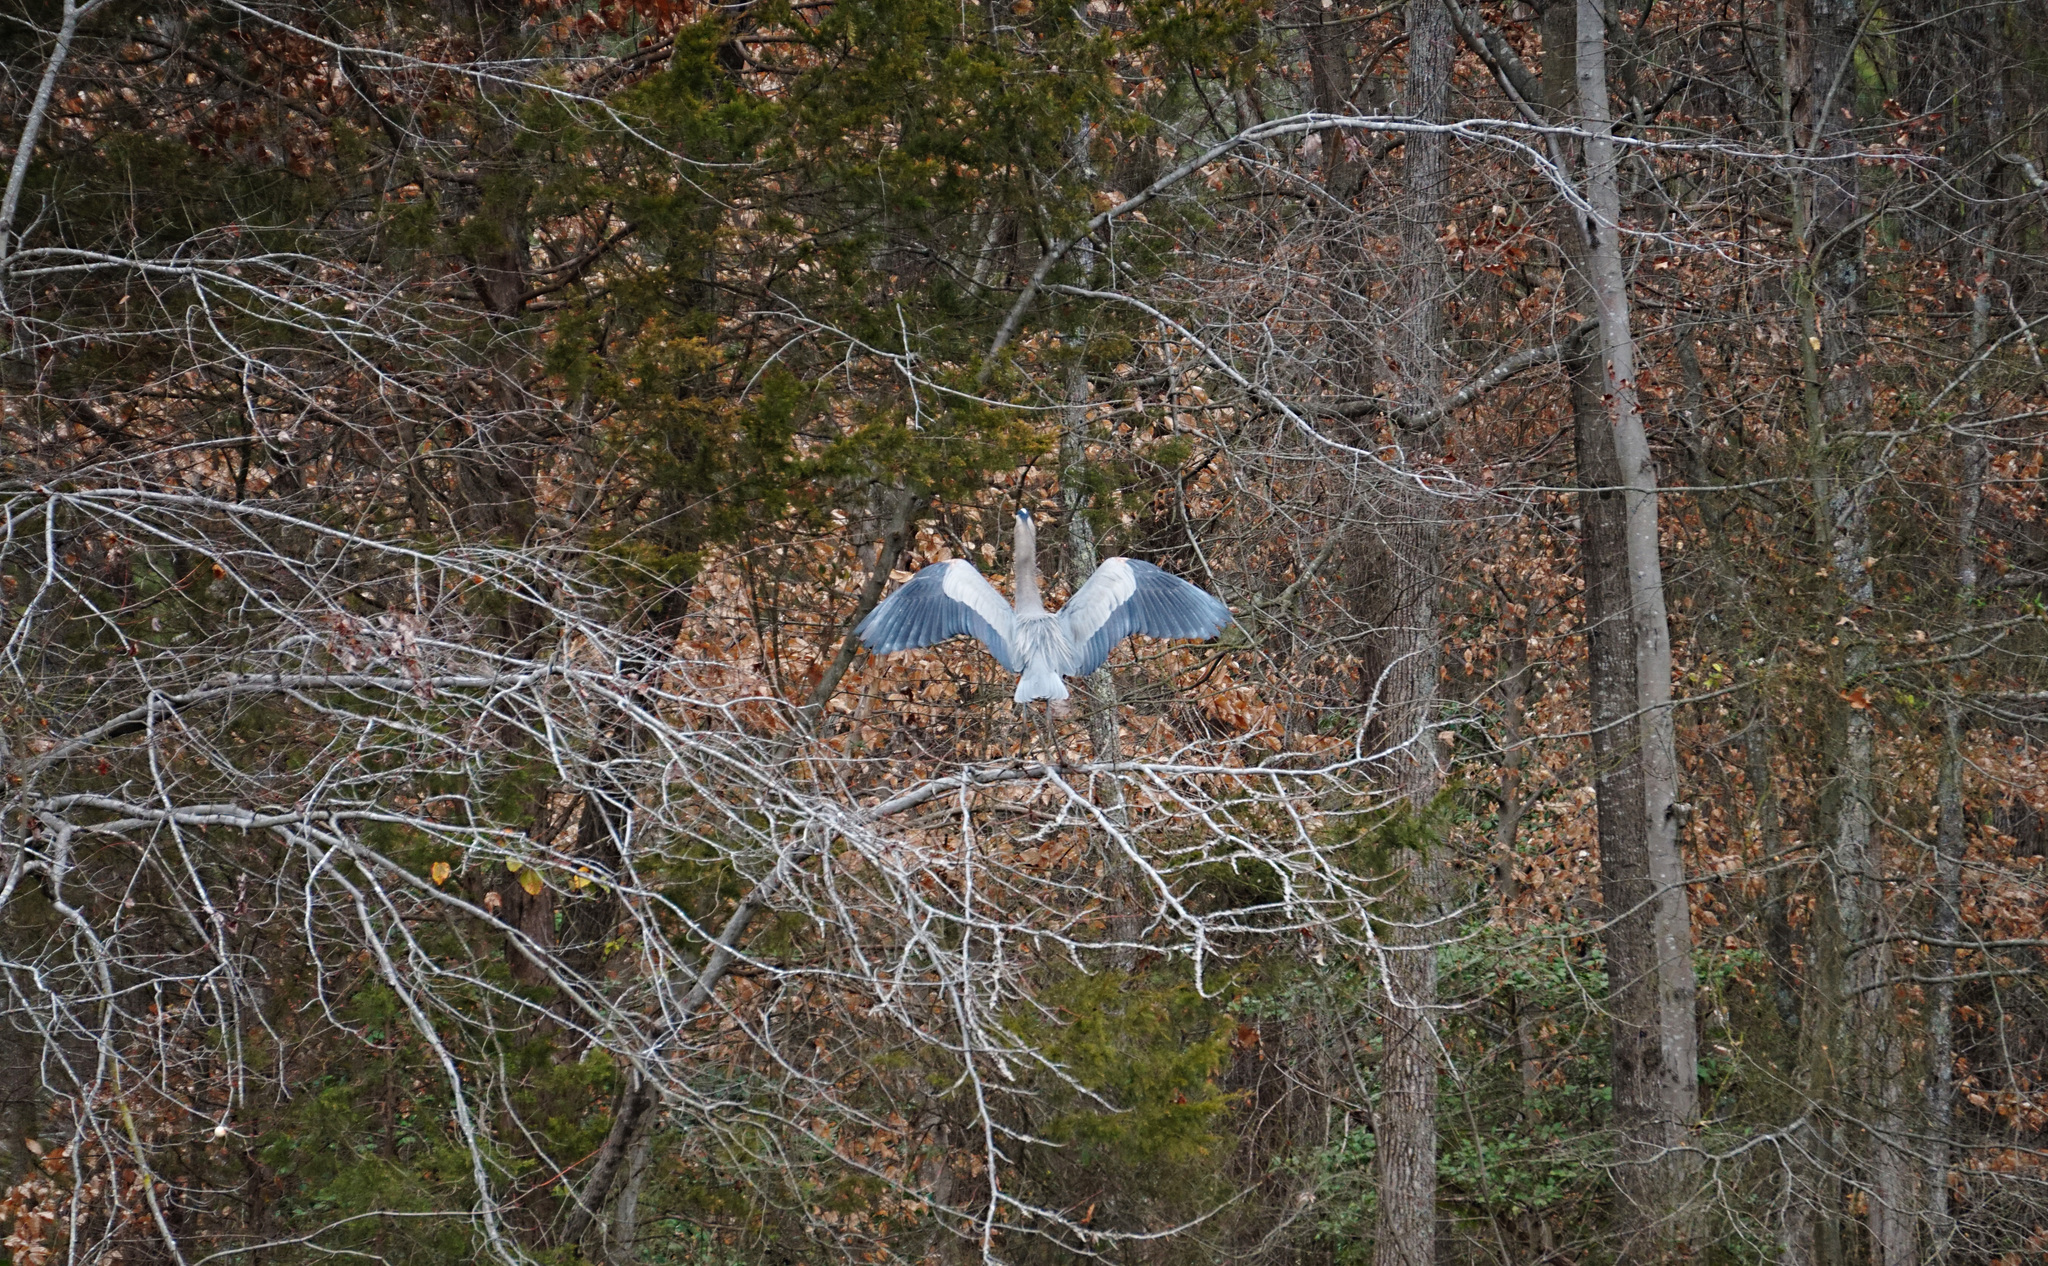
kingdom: Animalia
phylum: Chordata
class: Aves
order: Pelecaniformes
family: Ardeidae
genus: Ardea
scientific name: Ardea herodias
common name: Great blue heron
